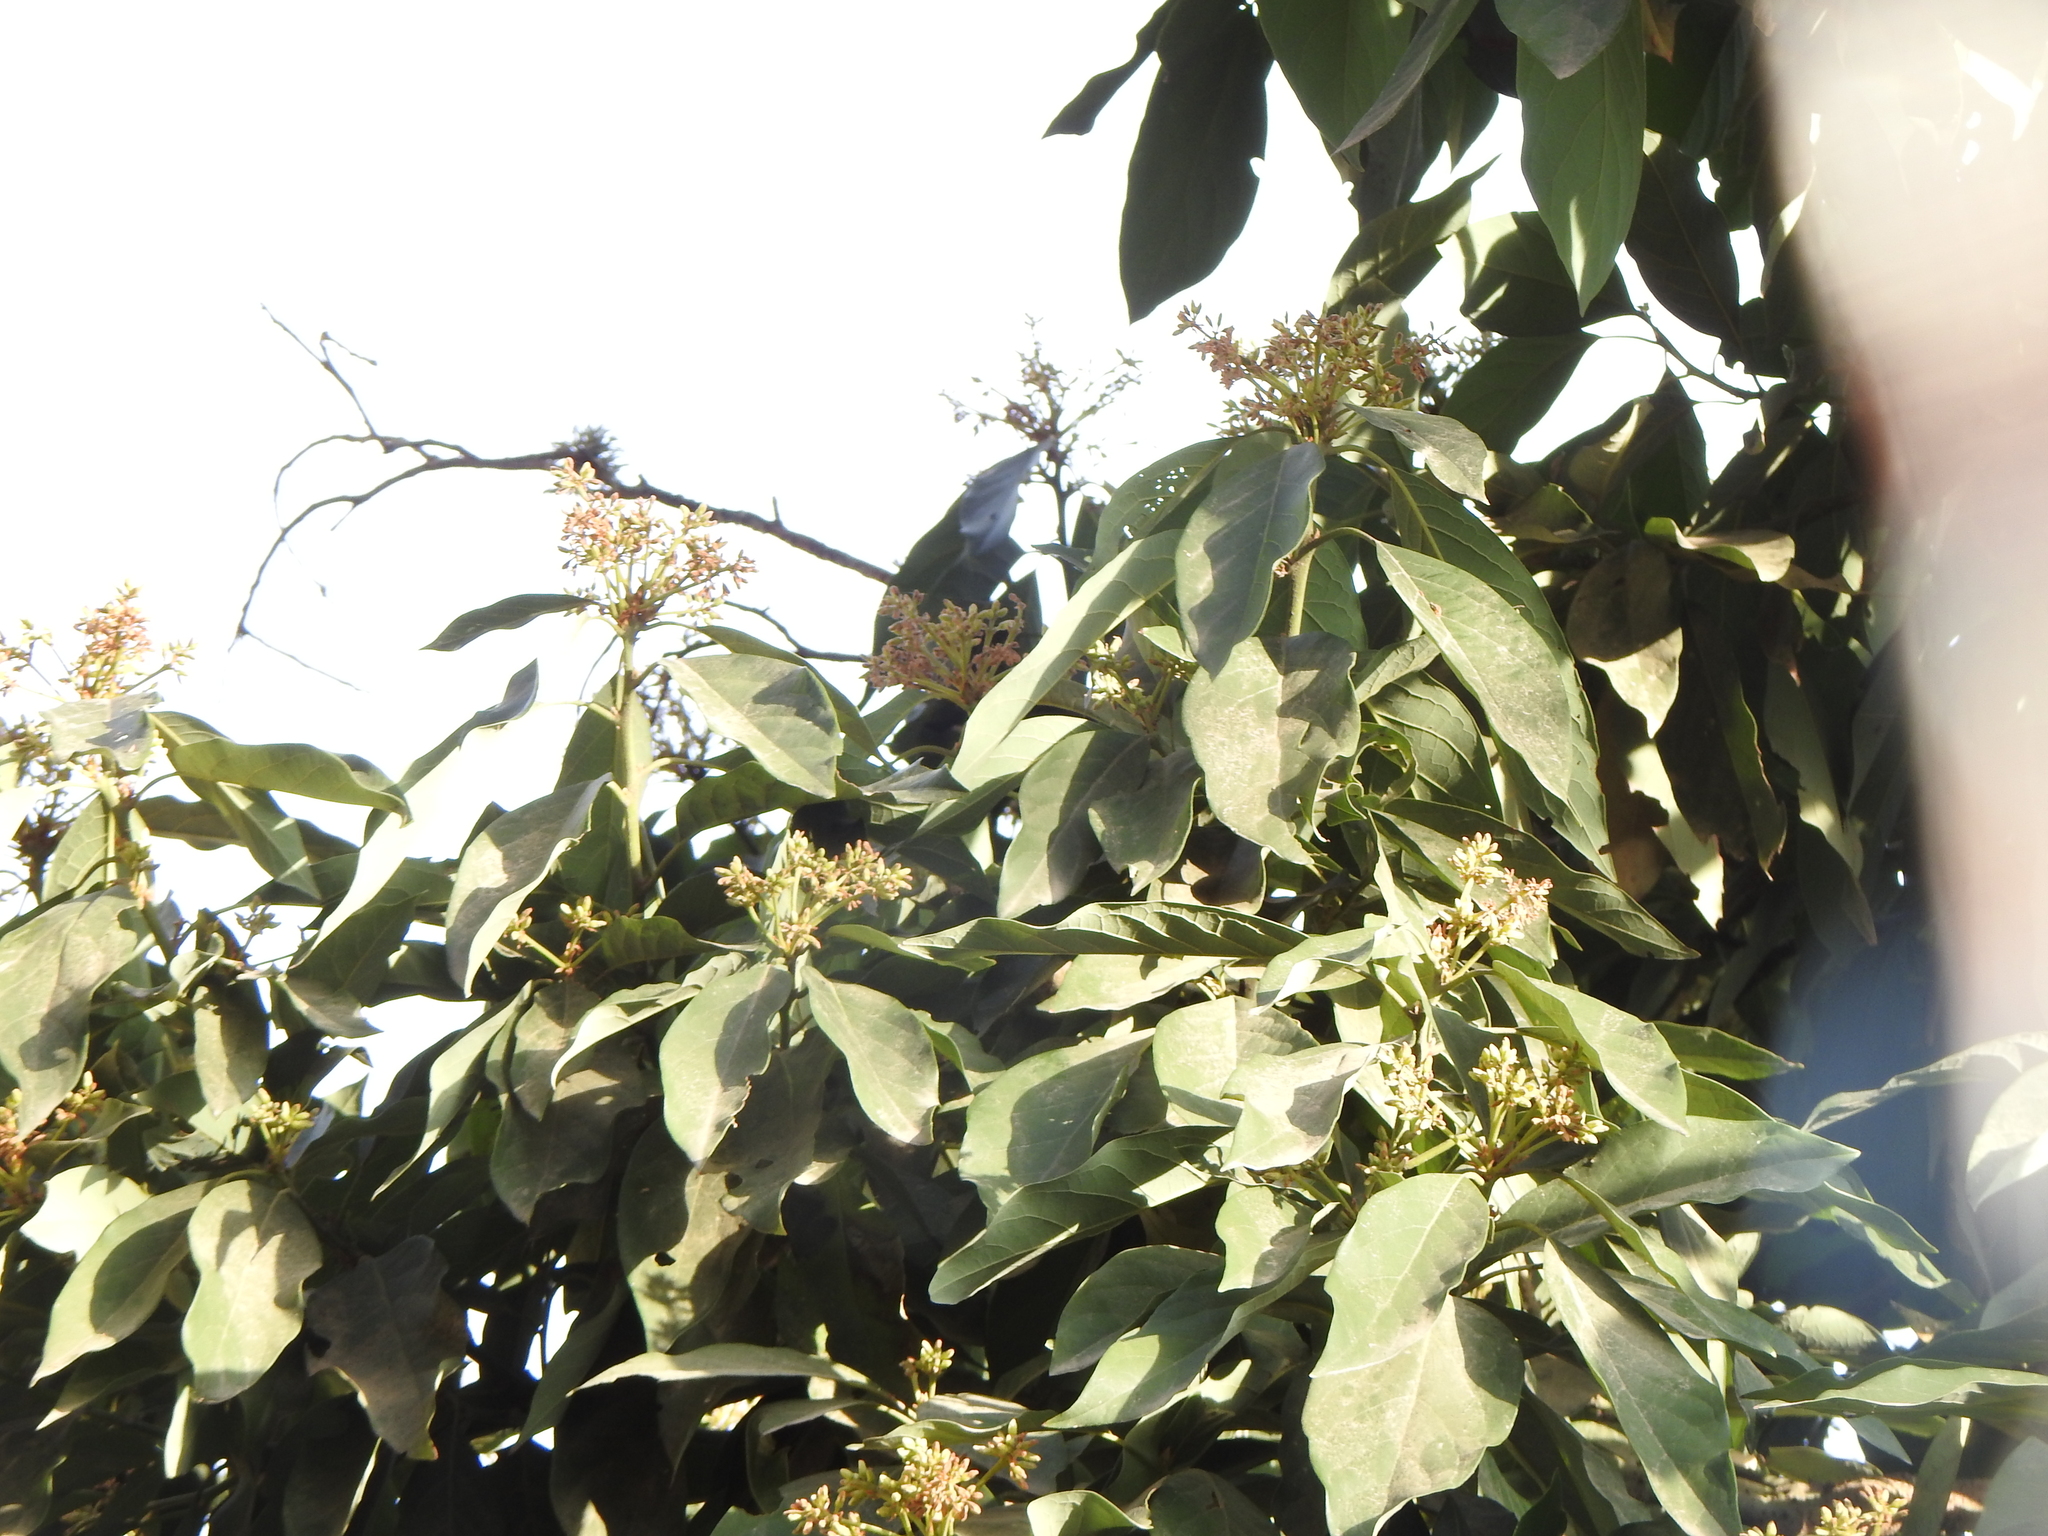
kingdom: Plantae
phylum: Tracheophyta
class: Magnoliopsida
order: Laurales
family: Lauraceae
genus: Persea
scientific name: Persea americana
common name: Avocado
